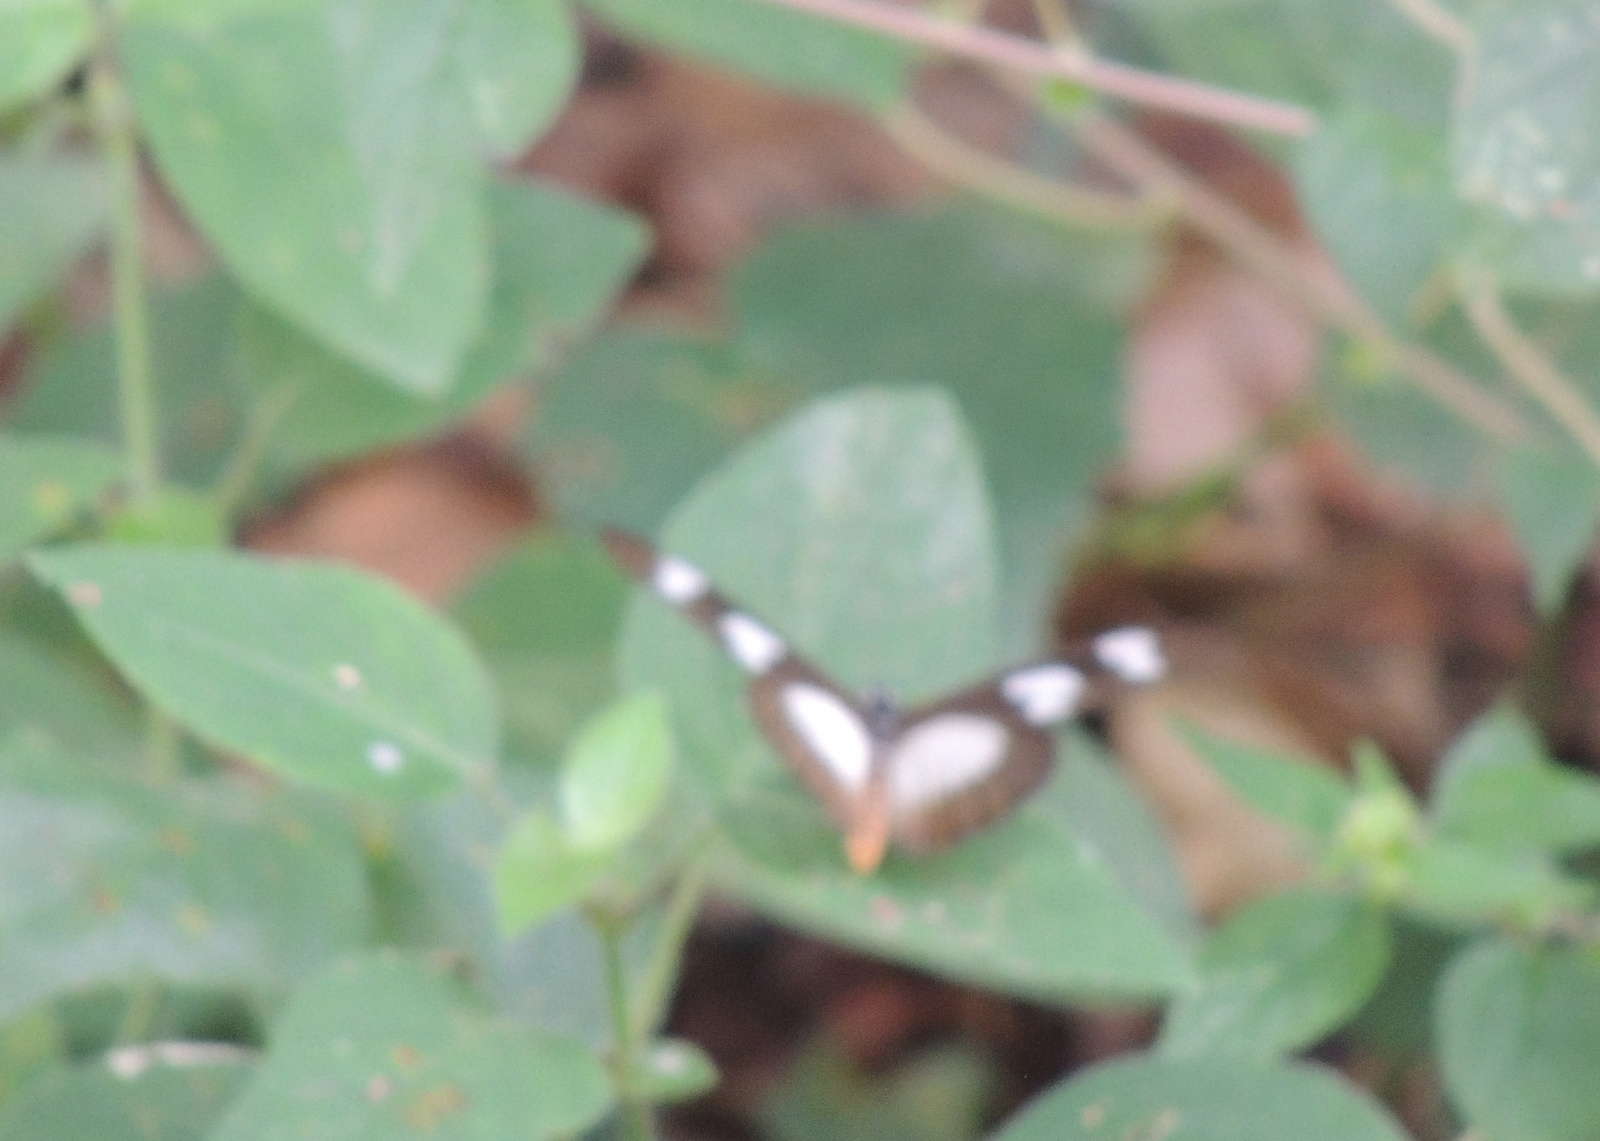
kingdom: Animalia
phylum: Arthropoda
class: Insecta
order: Lepidoptera
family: Nymphalidae
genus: Acraea
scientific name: Acraea Telchinia lycoa
